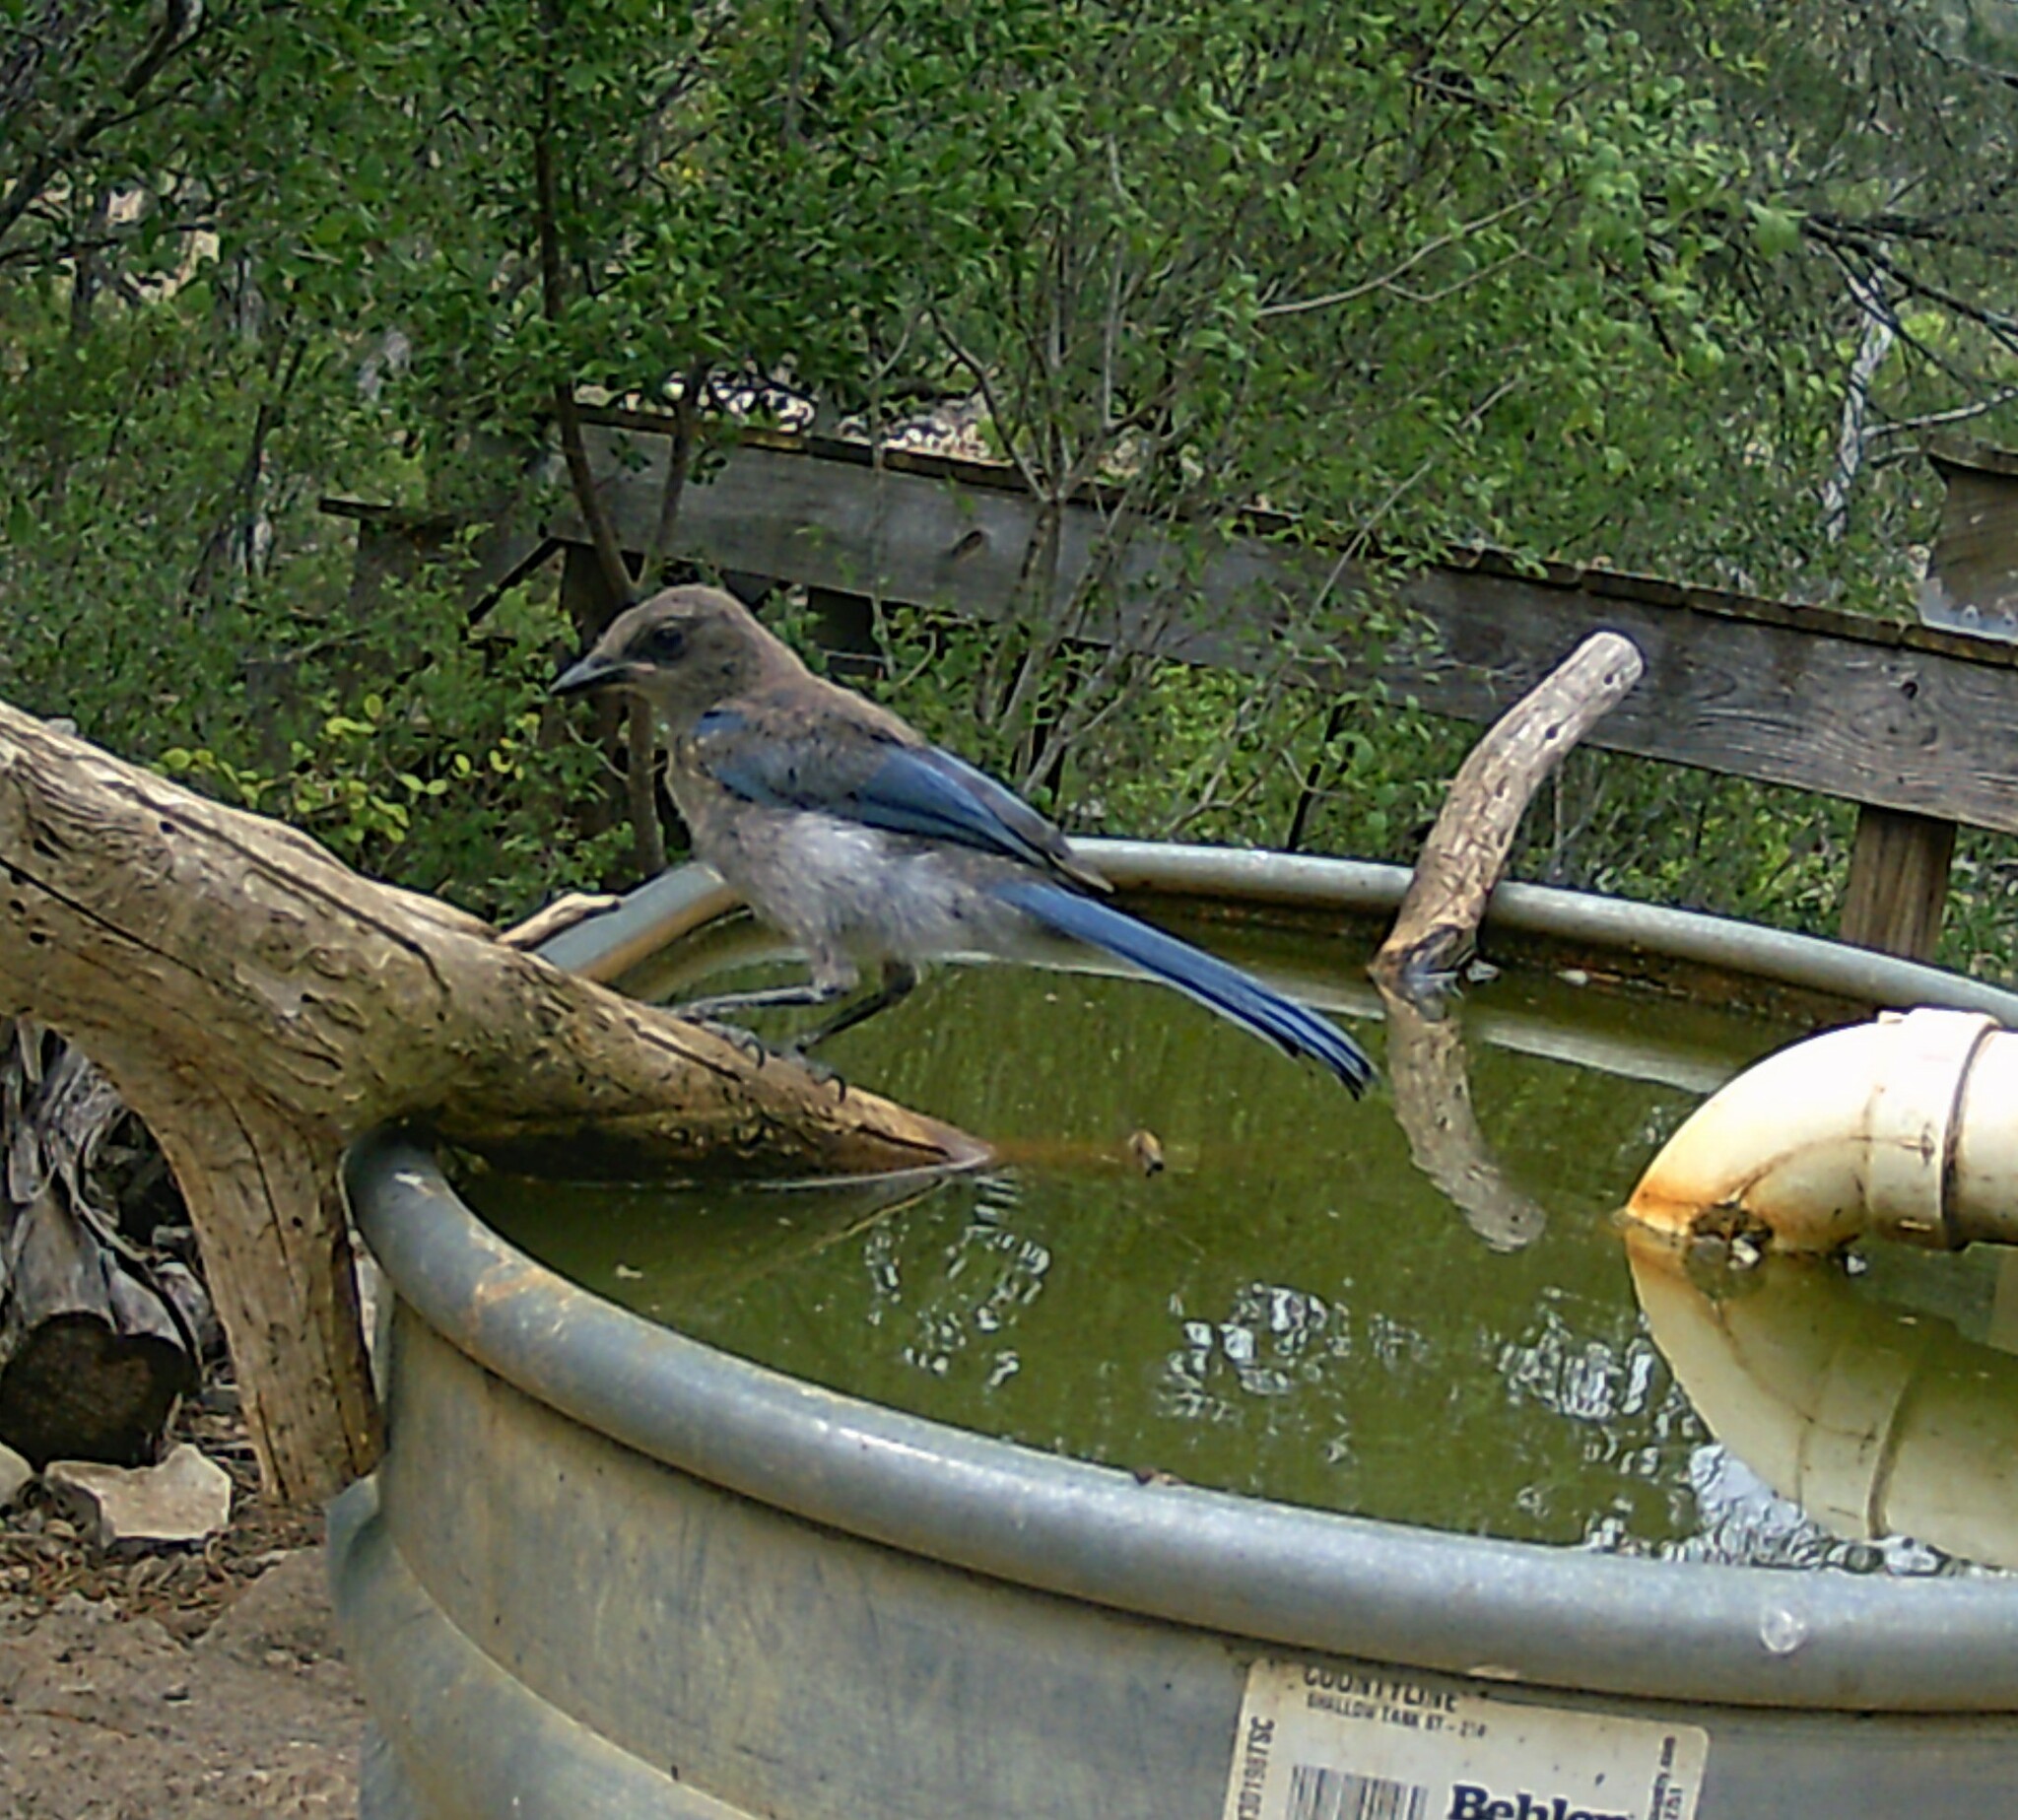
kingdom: Animalia
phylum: Chordata
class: Aves
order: Passeriformes
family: Corvidae
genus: Aphelocoma
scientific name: Aphelocoma woodhouseii
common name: Woodhouse's scrub-jay
